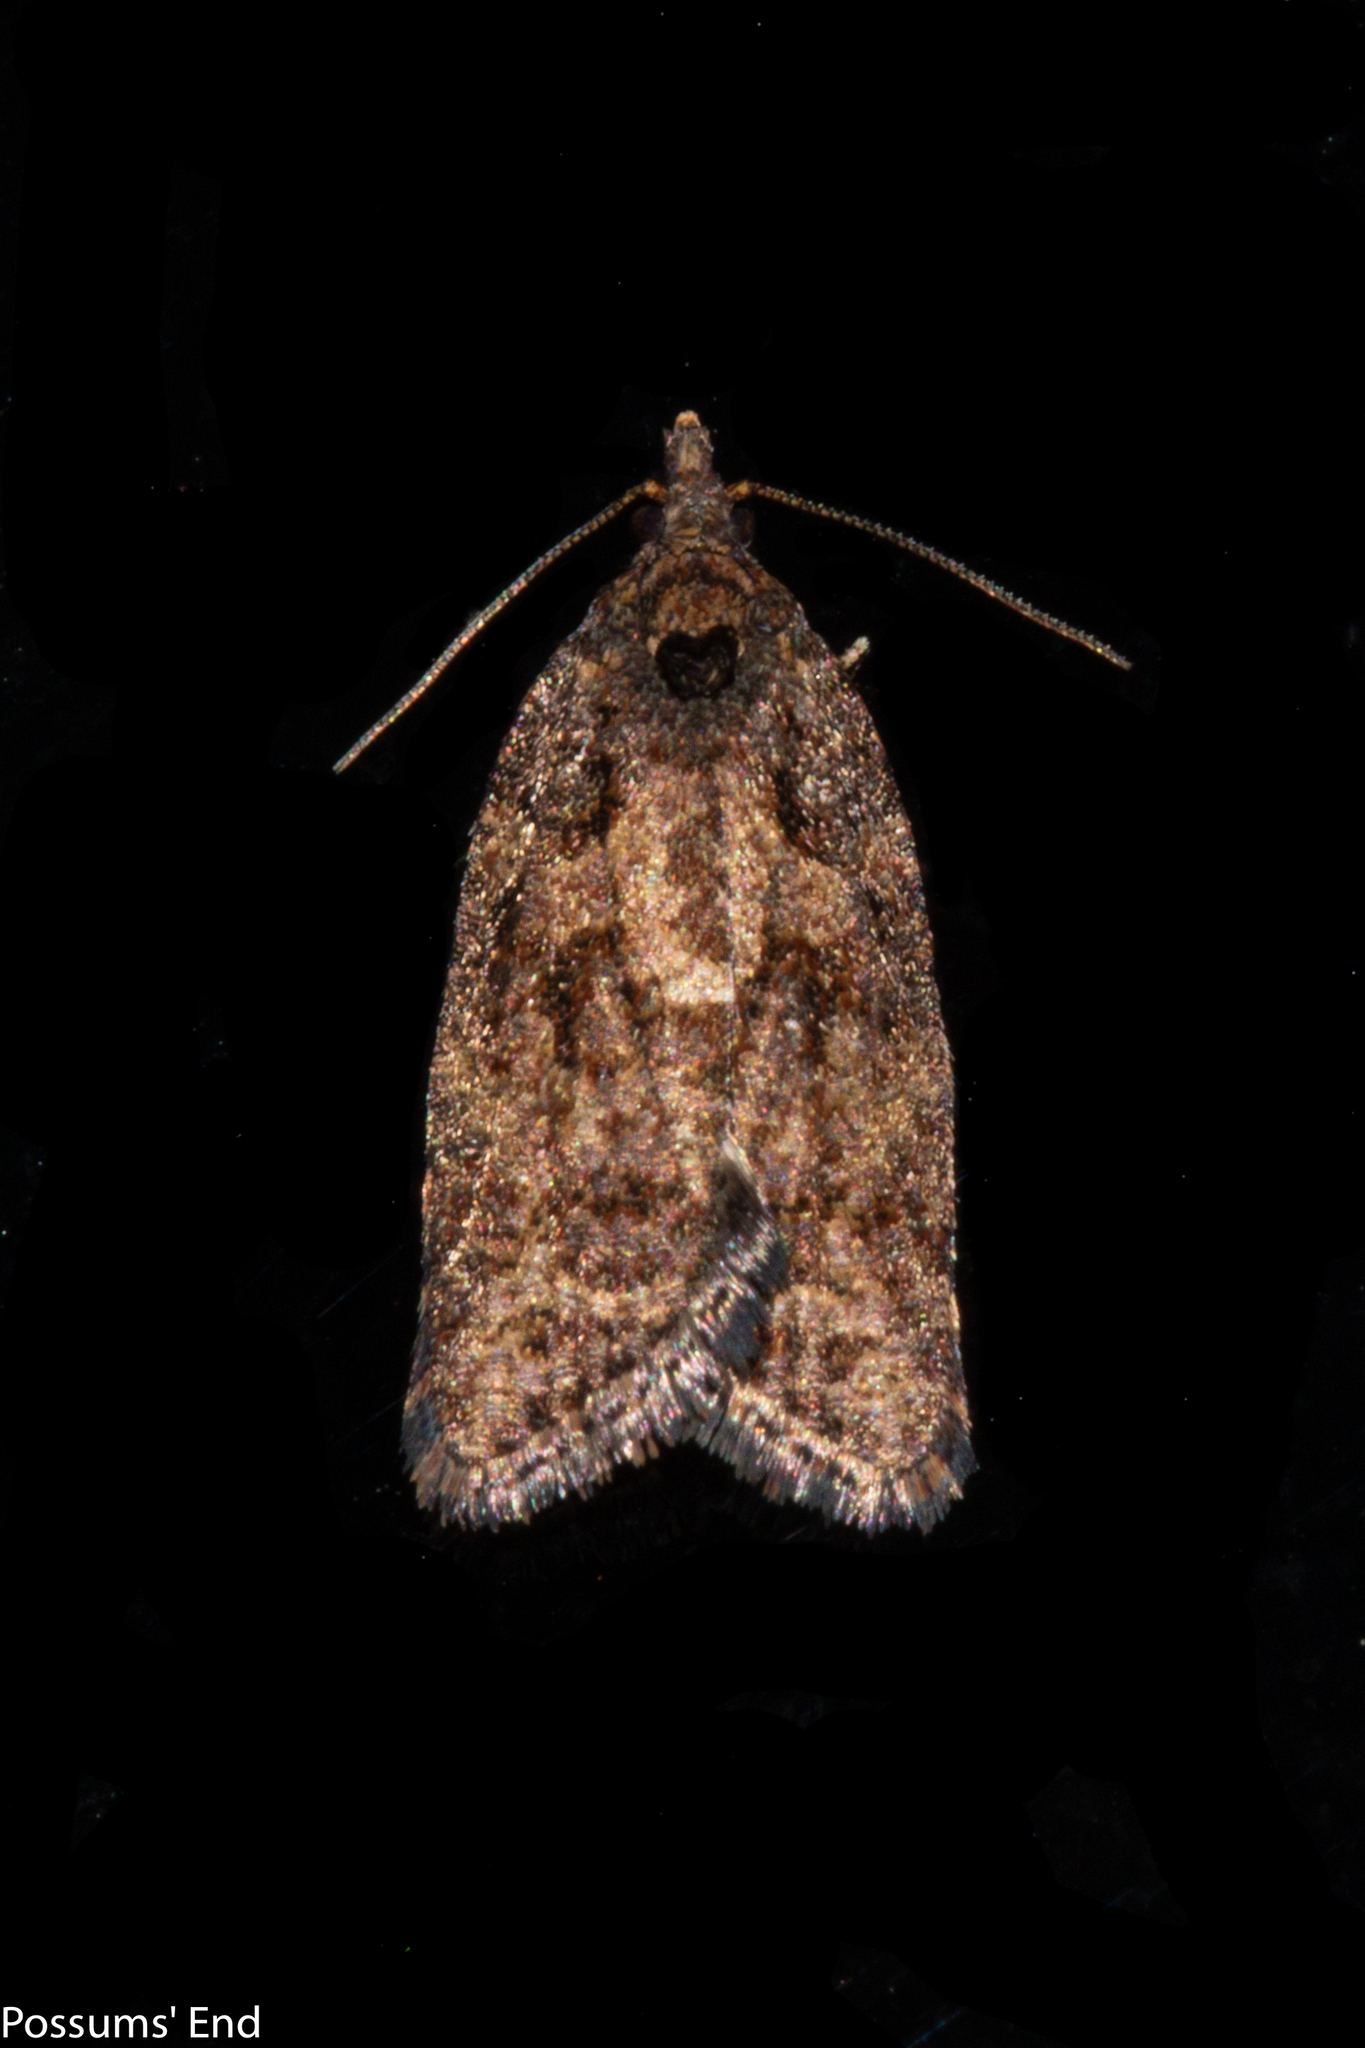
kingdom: Animalia
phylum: Arthropoda
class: Insecta
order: Lepidoptera
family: Tortricidae
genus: Capua
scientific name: Capua intractana
